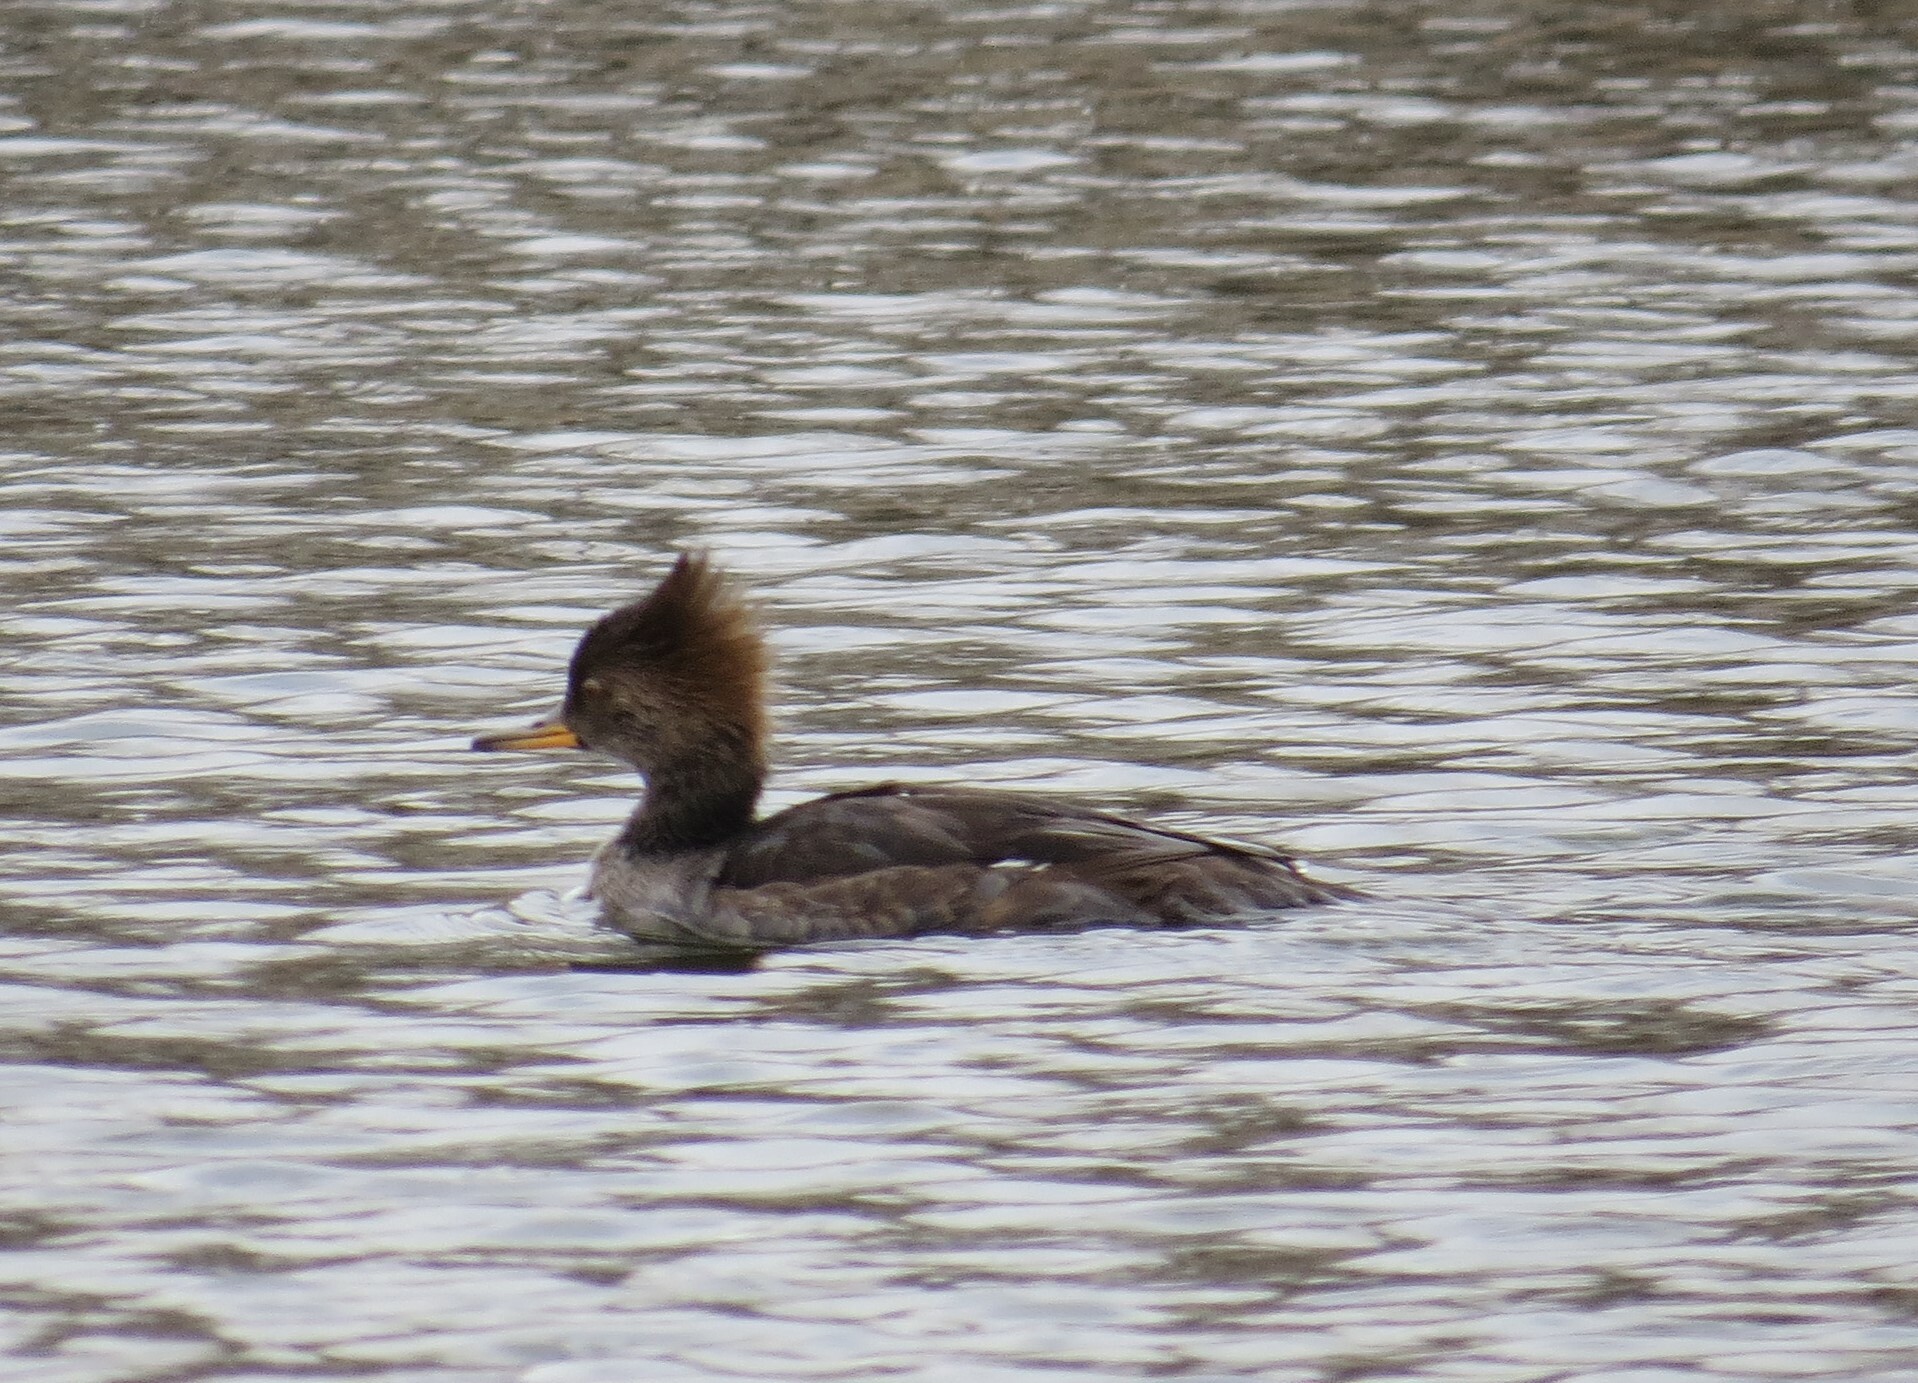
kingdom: Animalia
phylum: Chordata
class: Aves
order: Anseriformes
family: Anatidae
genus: Lophodytes
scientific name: Lophodytes cucullatus
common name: Hooded merganser
